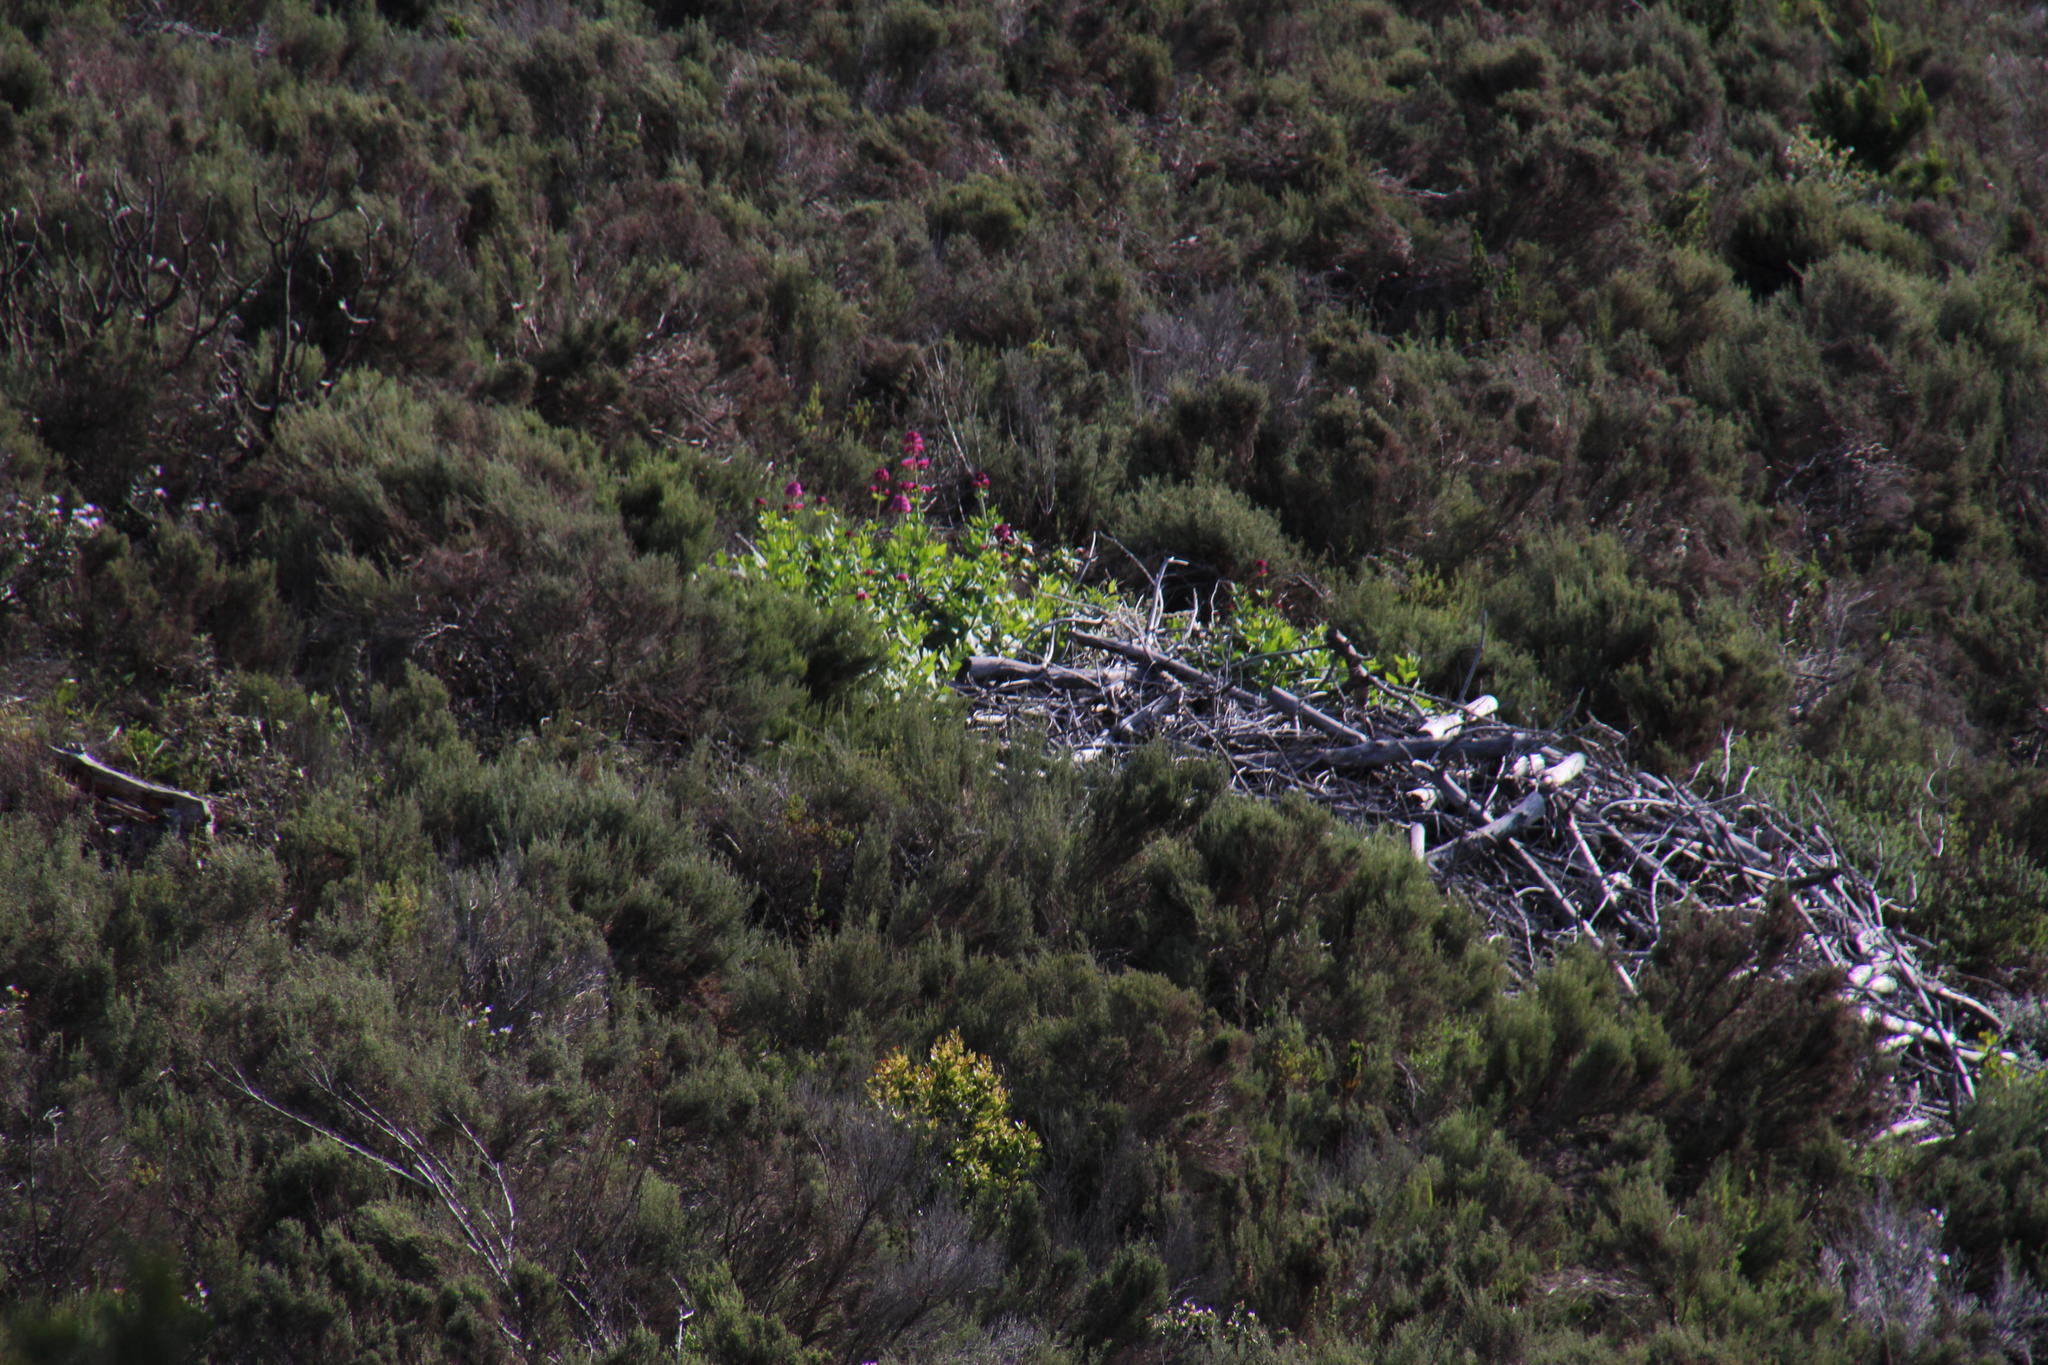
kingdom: Plantae
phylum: Tracheophyta
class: Magnoliopsida
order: Dipsacales
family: Caprifoliaceae
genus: Centranthus
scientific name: Centranthus ruber
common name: Red valerian
